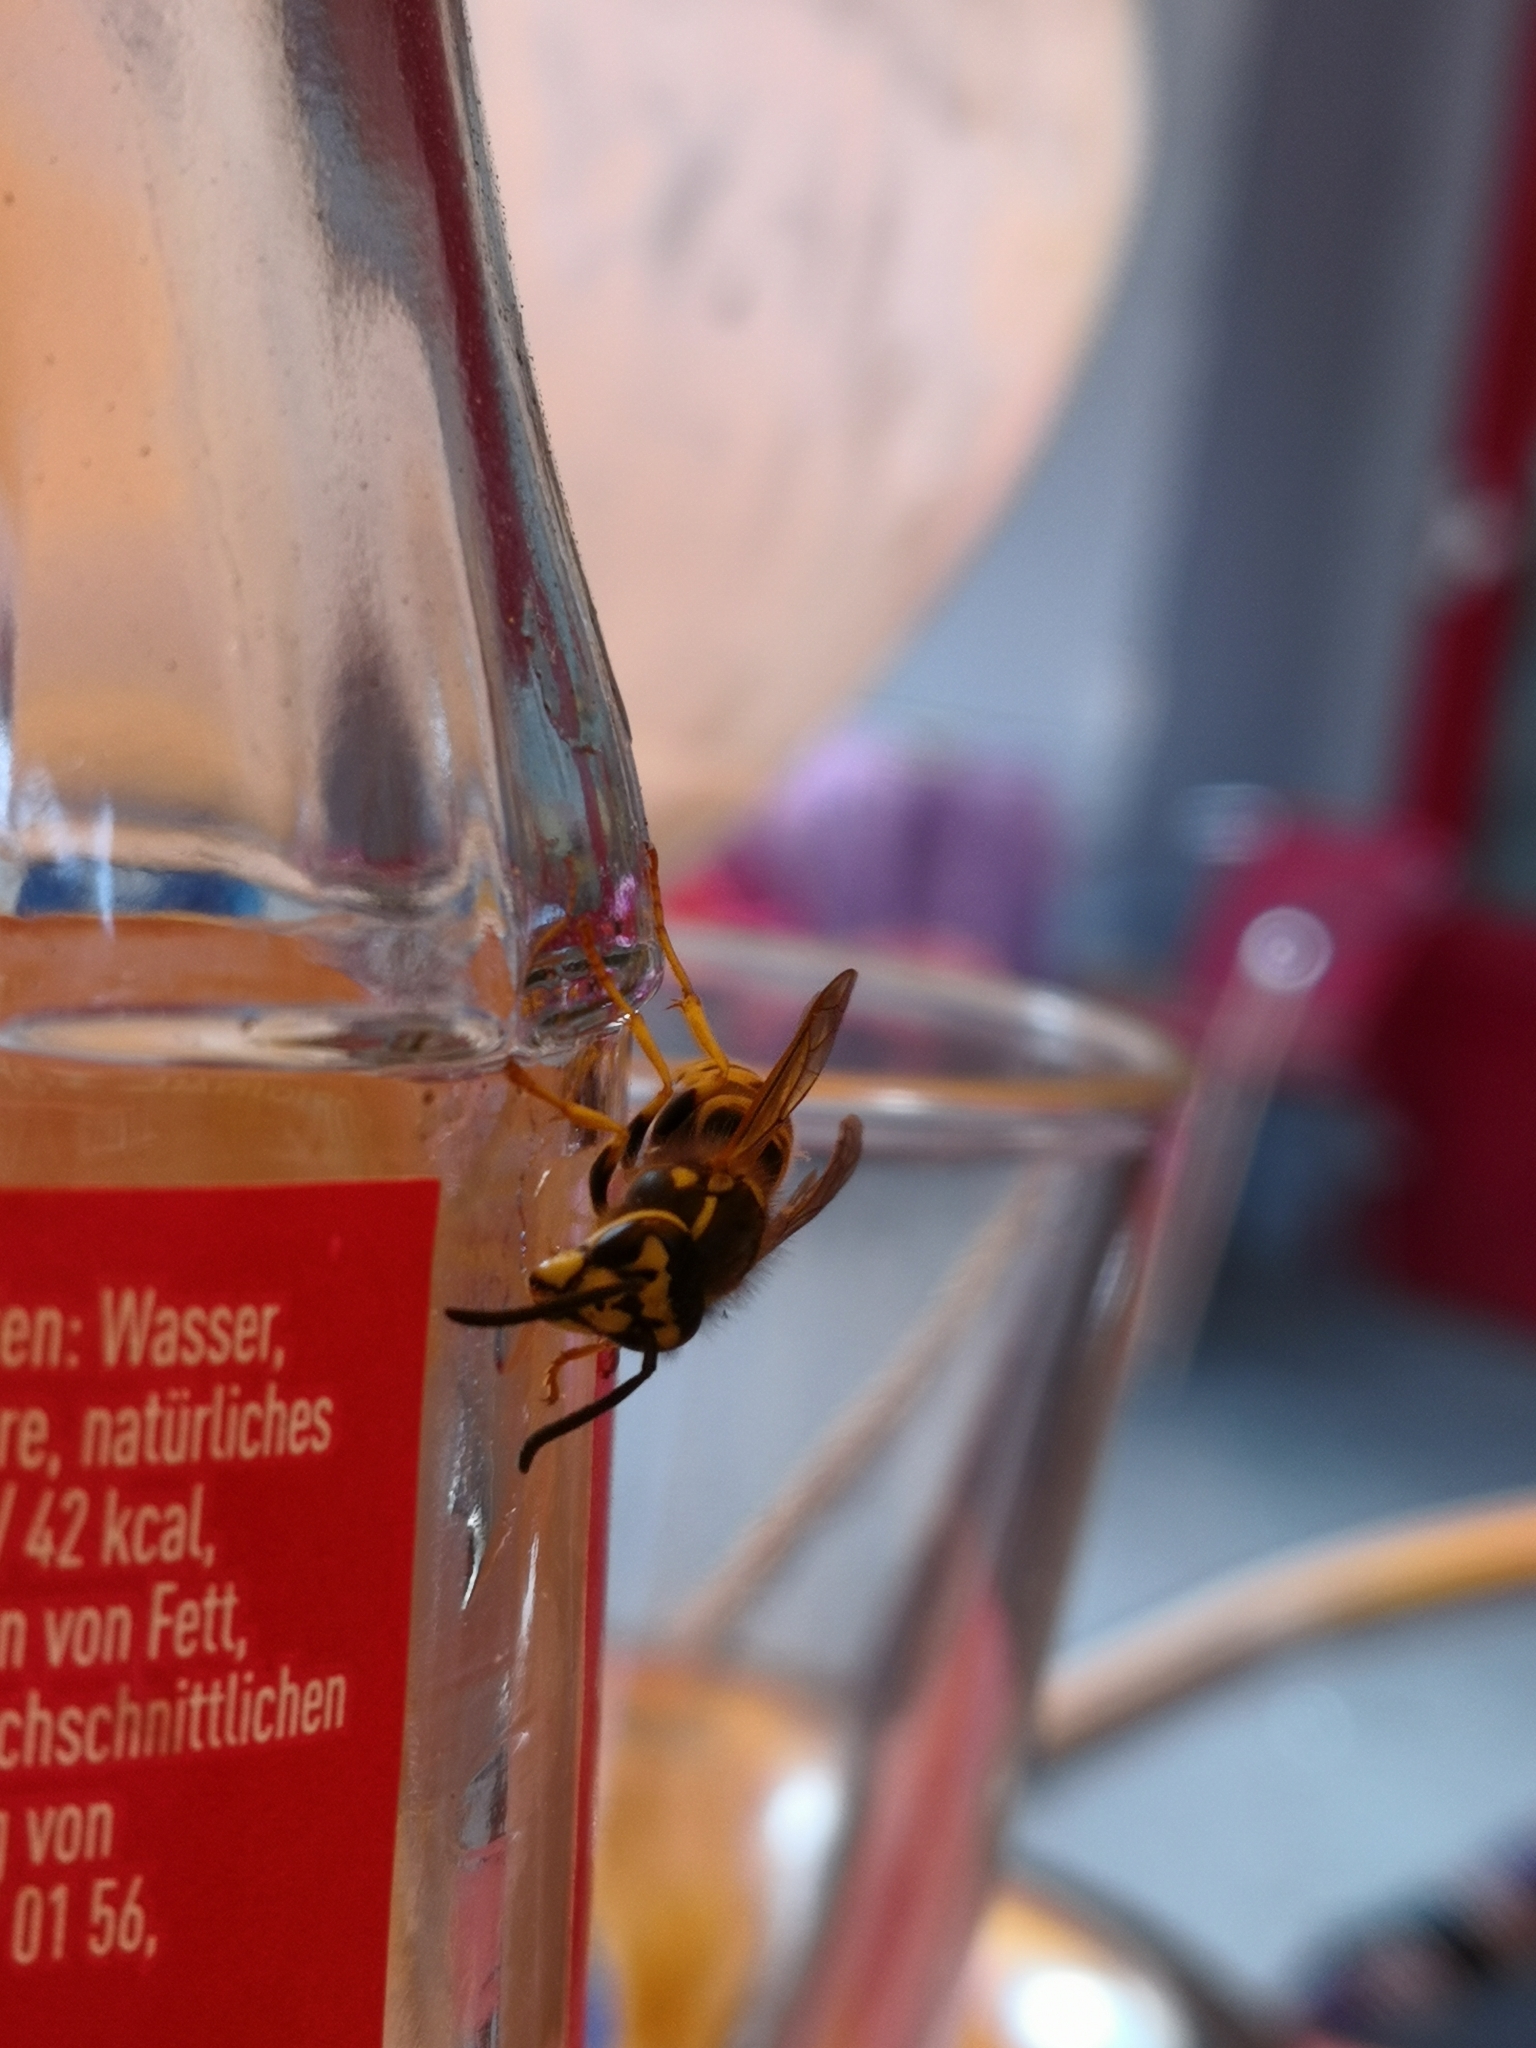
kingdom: Animalia
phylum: Arthropoda
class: Insecta
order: Hymenoptera
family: Vespidae
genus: Vespula
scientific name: Vespula germanica
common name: German wasp
